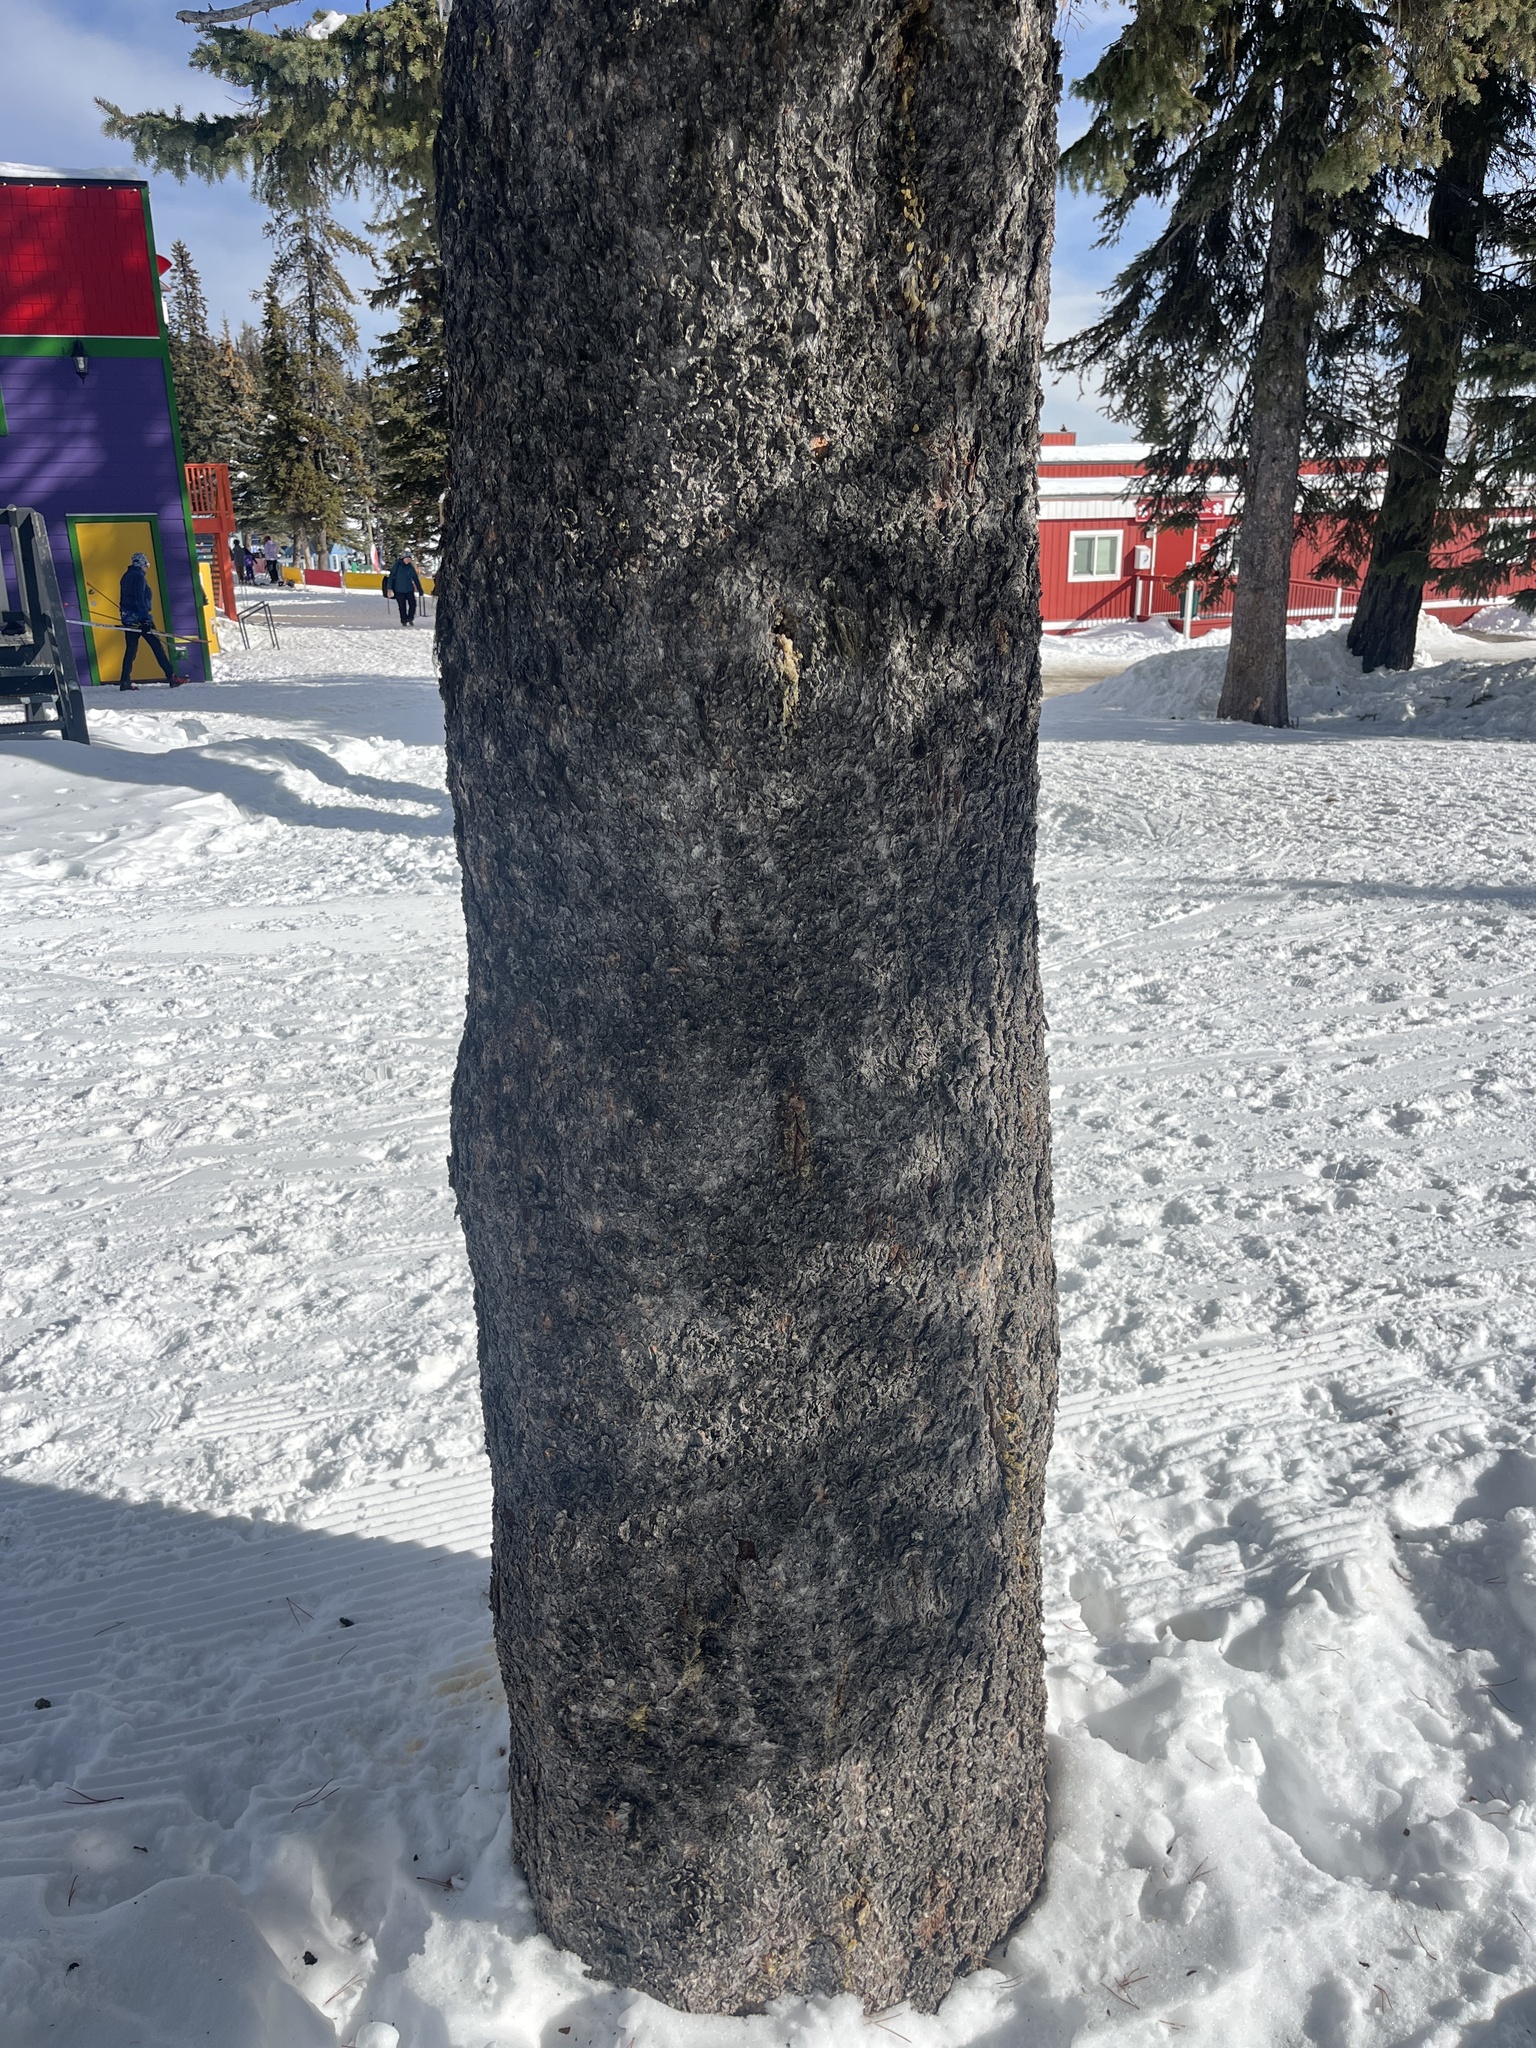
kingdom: Plantae
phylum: Tracheophyta
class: Pinopsida
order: Pinales
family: Pinaceae
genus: Pinus
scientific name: Pinus contorta
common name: Lodgepole pine
